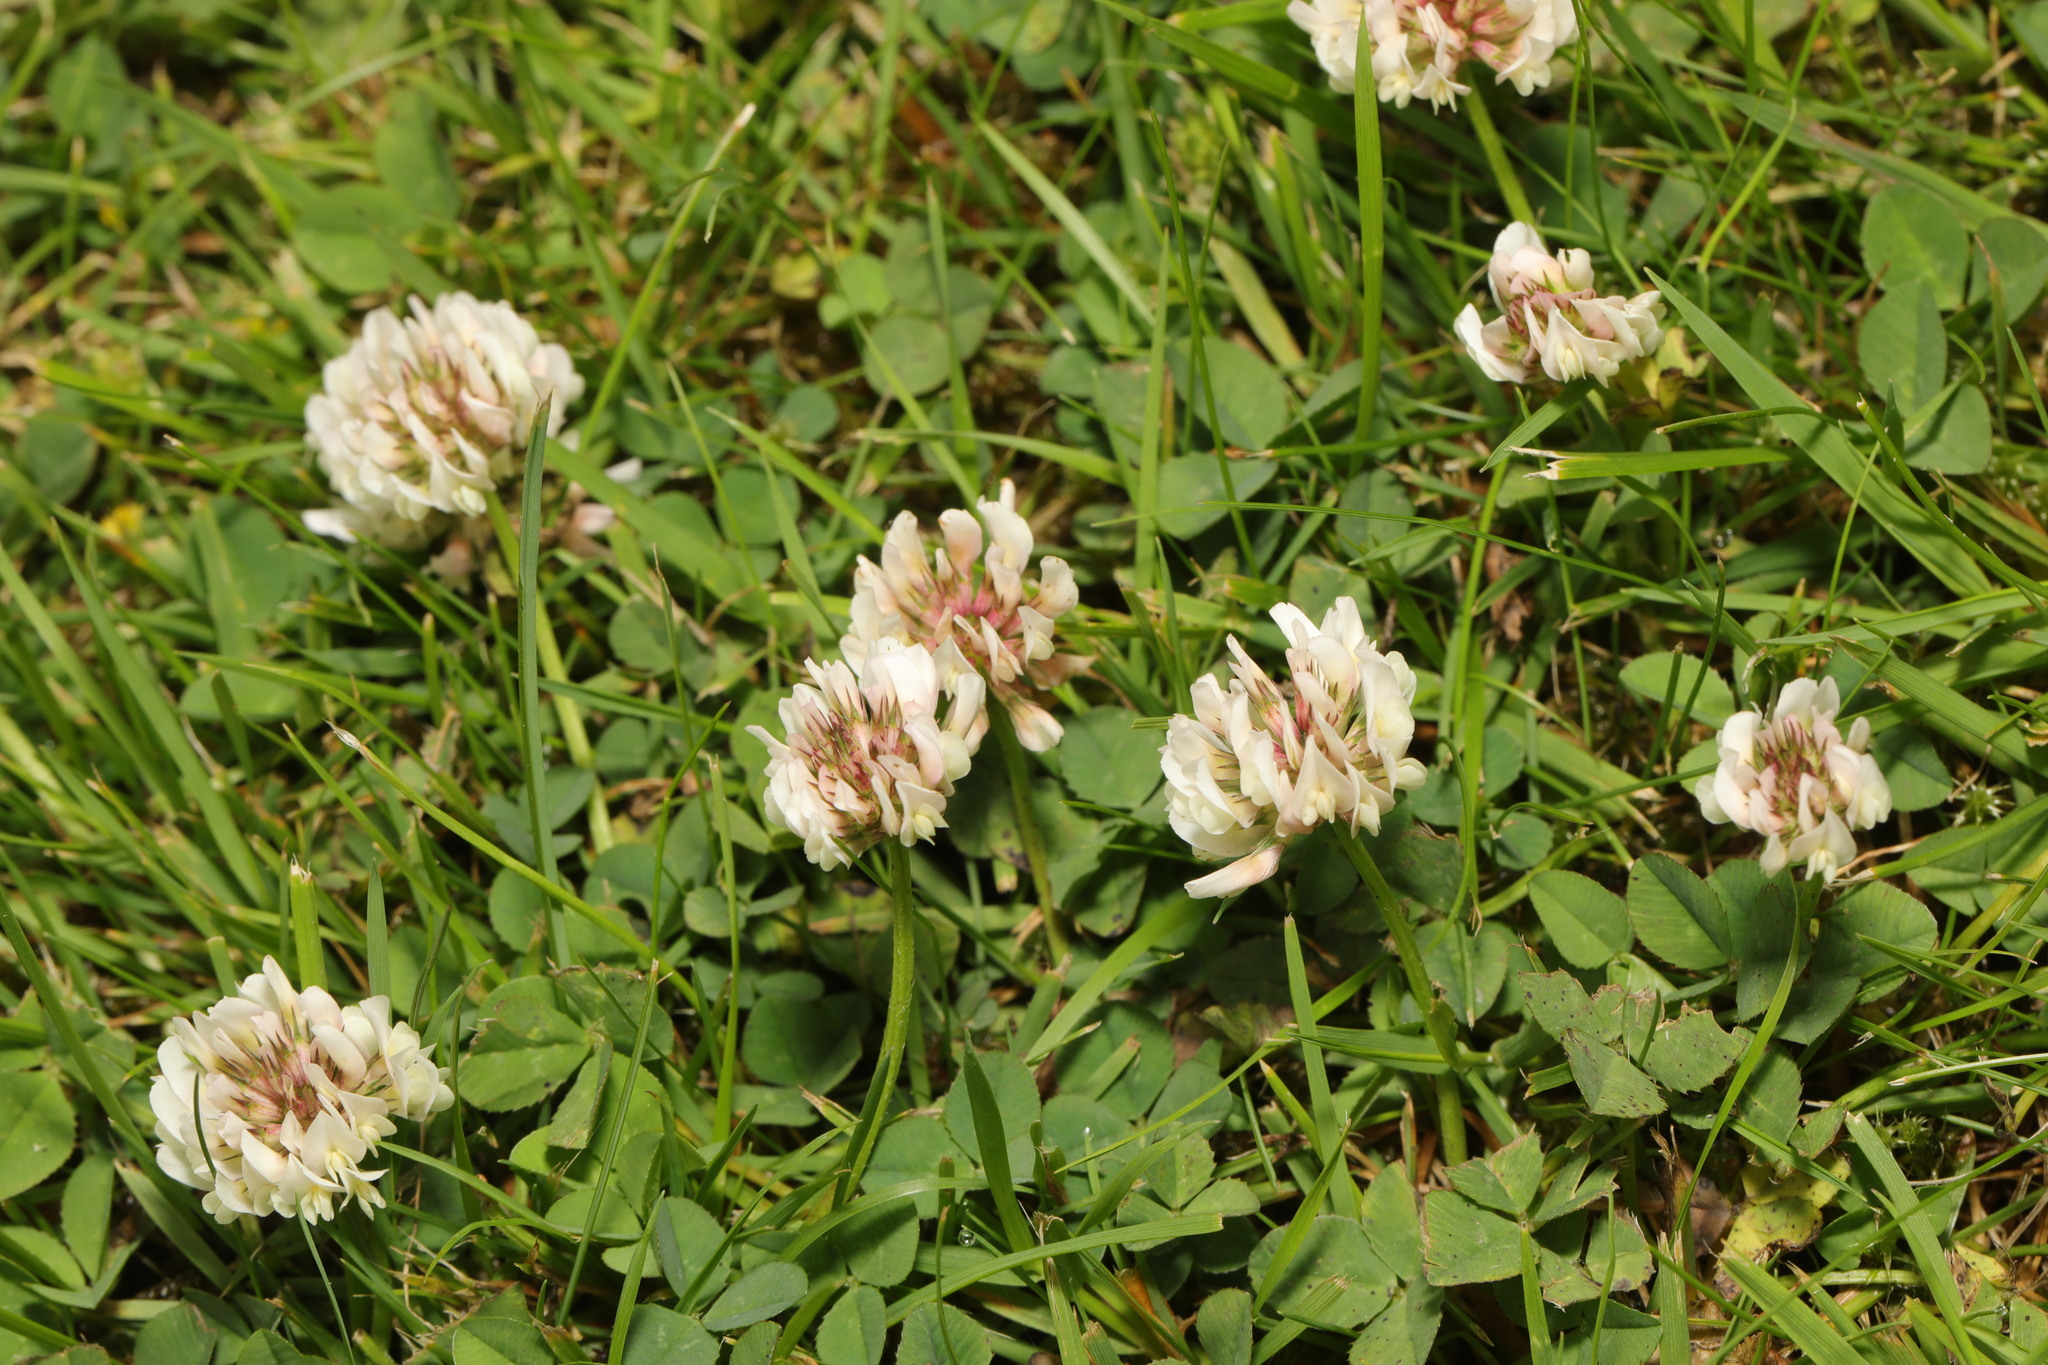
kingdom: Plantae
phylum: Tracheophyta
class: Magnoliopsida
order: Fabales
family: Fabaceae
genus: Trifolium
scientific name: Trifolium repens
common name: White clover
